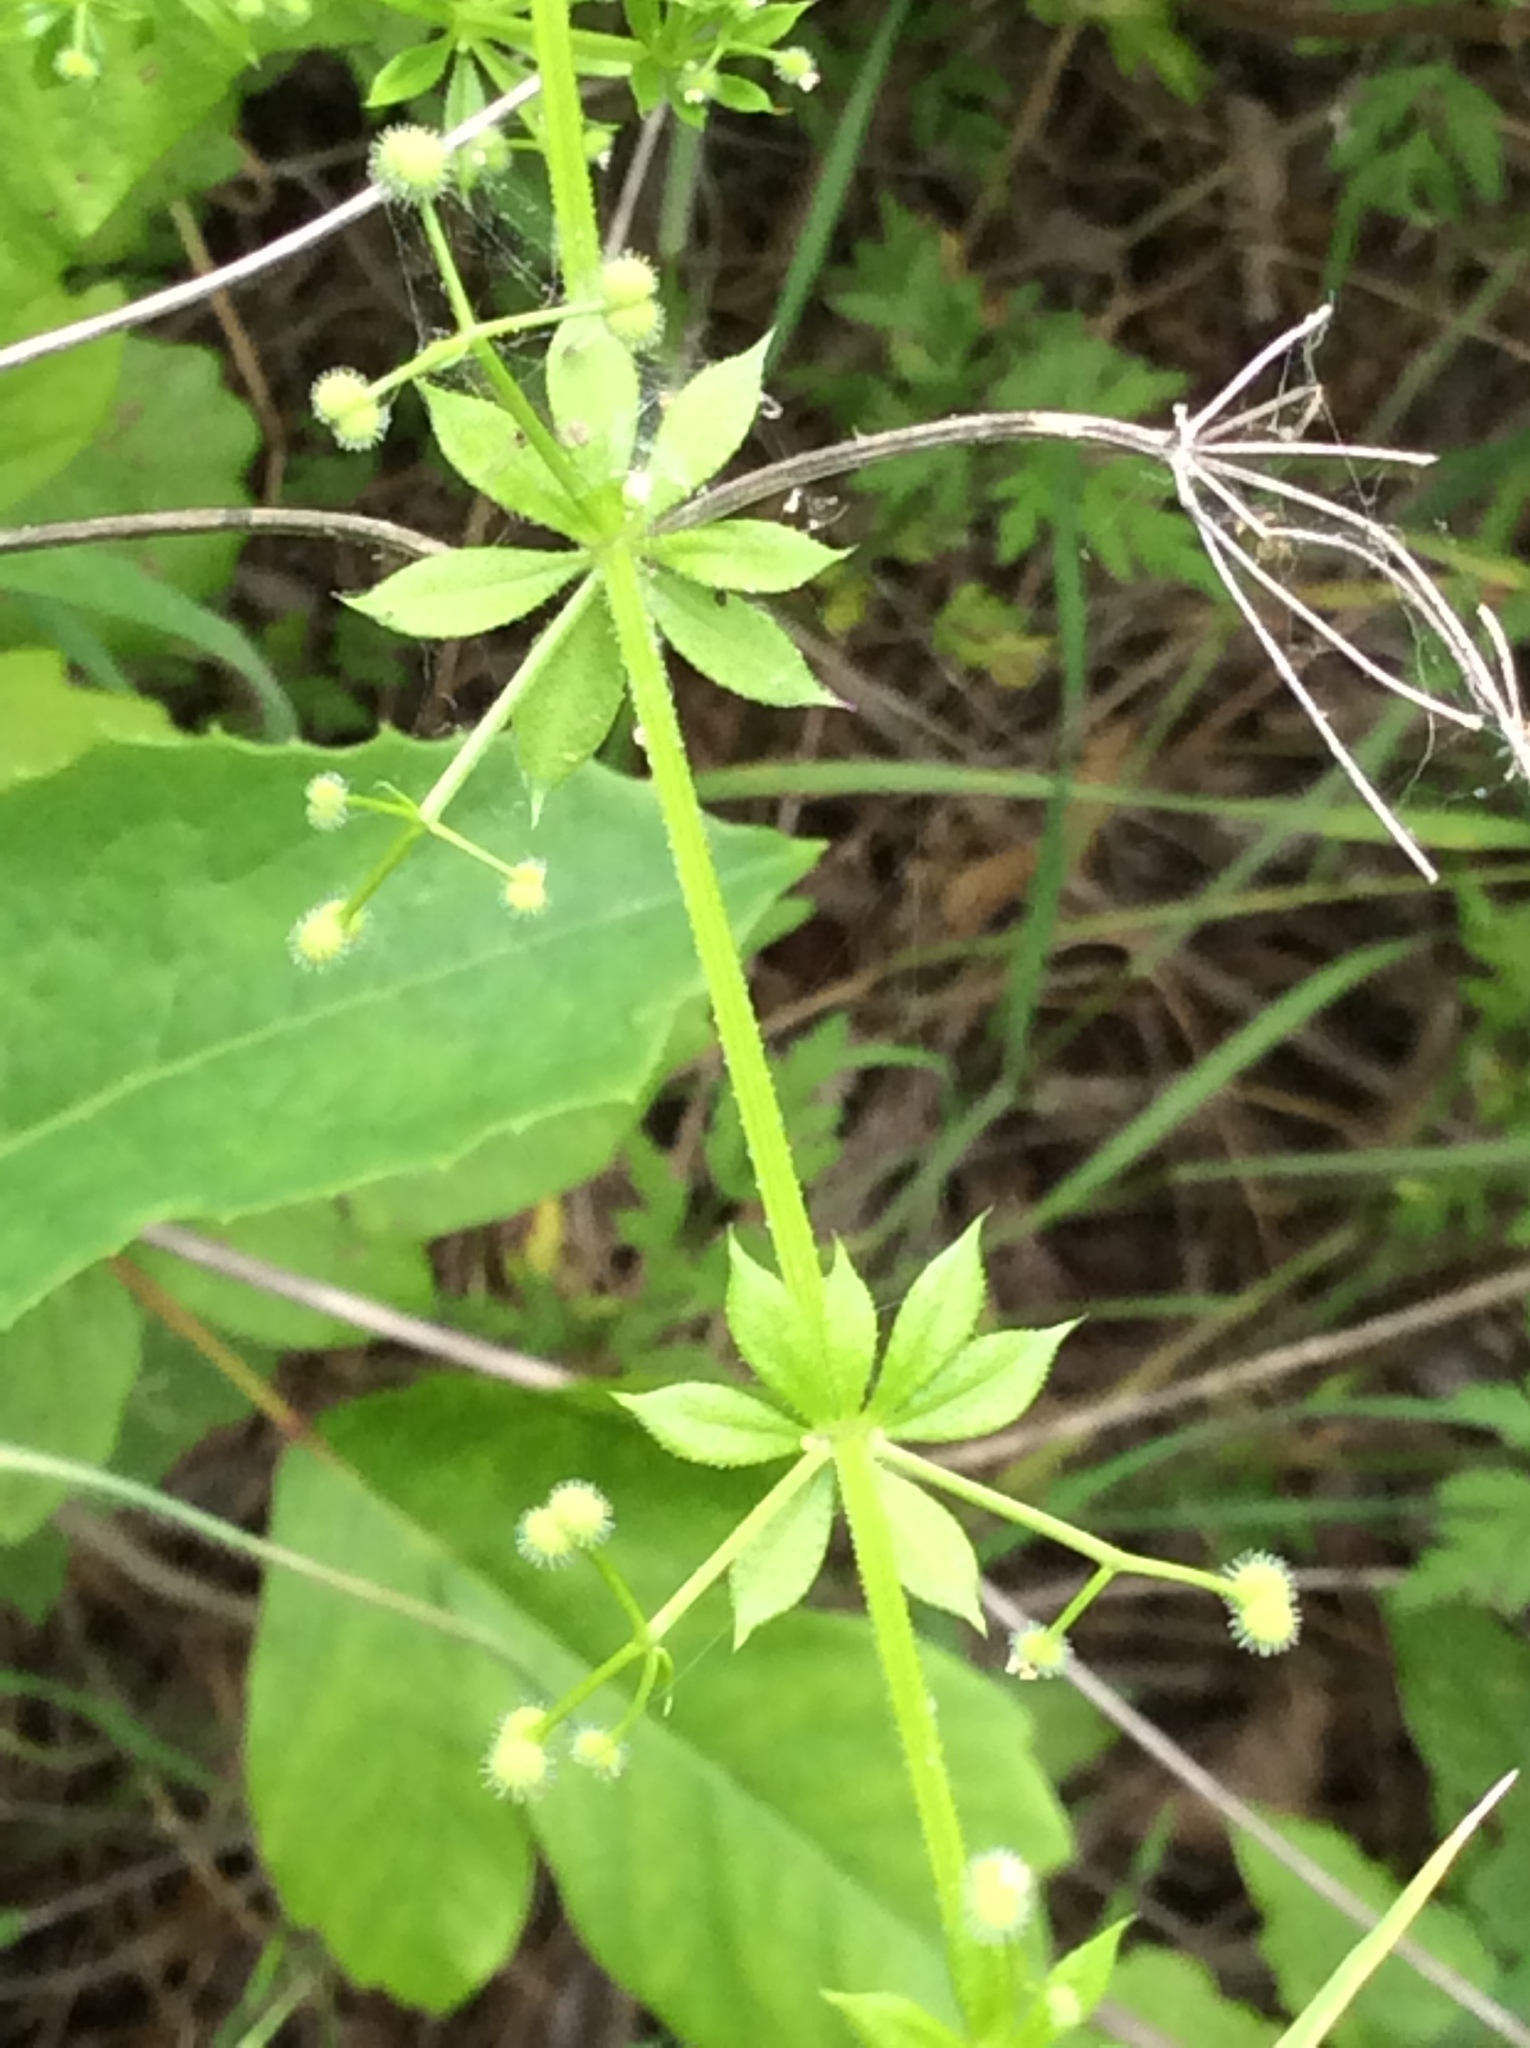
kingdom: Plantae
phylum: Tracheophyta
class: Magnoliopsida
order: Gentianales
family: Rubiaceae
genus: Galium
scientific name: Galium aparine
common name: Cleavers
